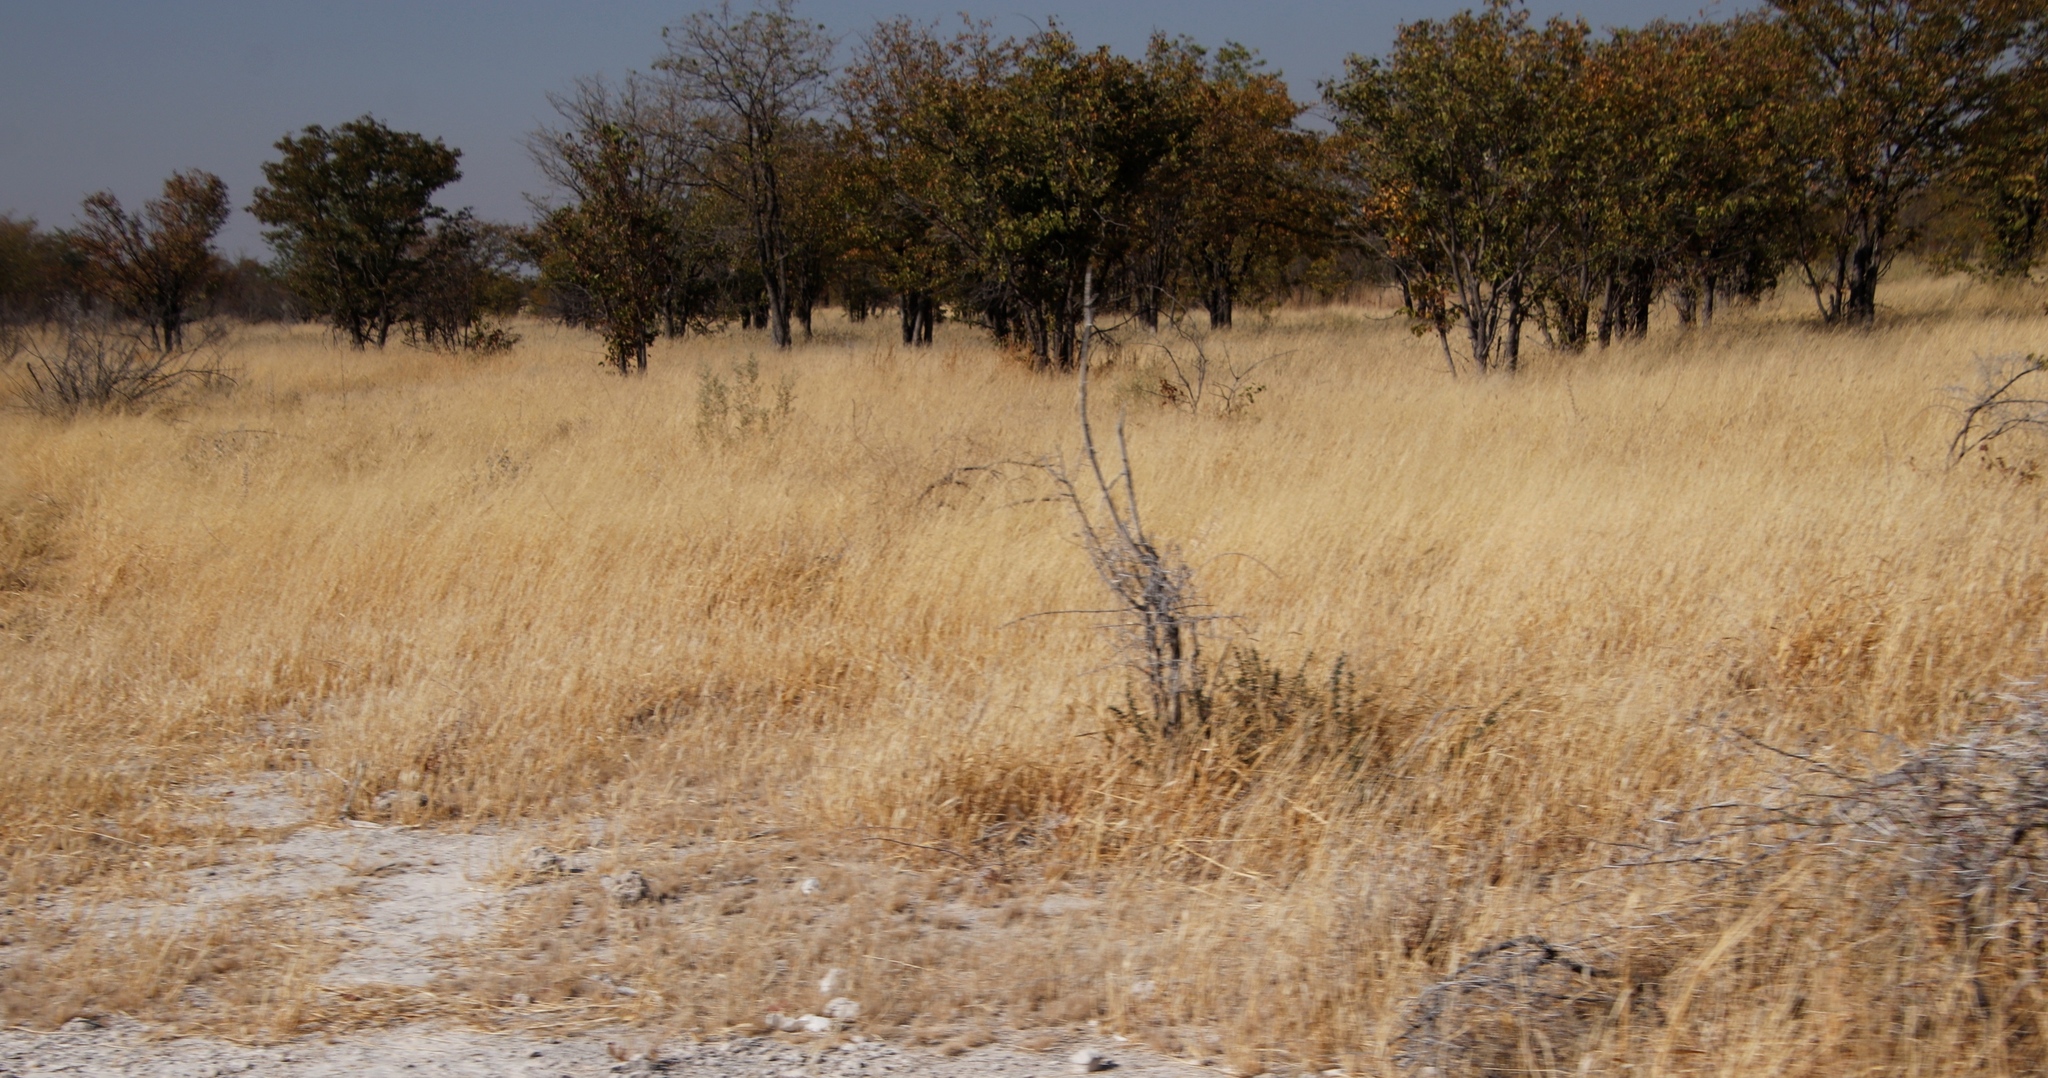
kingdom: Plantae
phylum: Tracheophyta
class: Magnoliopsida
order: Fabales
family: Fabaceae
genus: Colophospermum
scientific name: Colophospermum mopane
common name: Mopane
